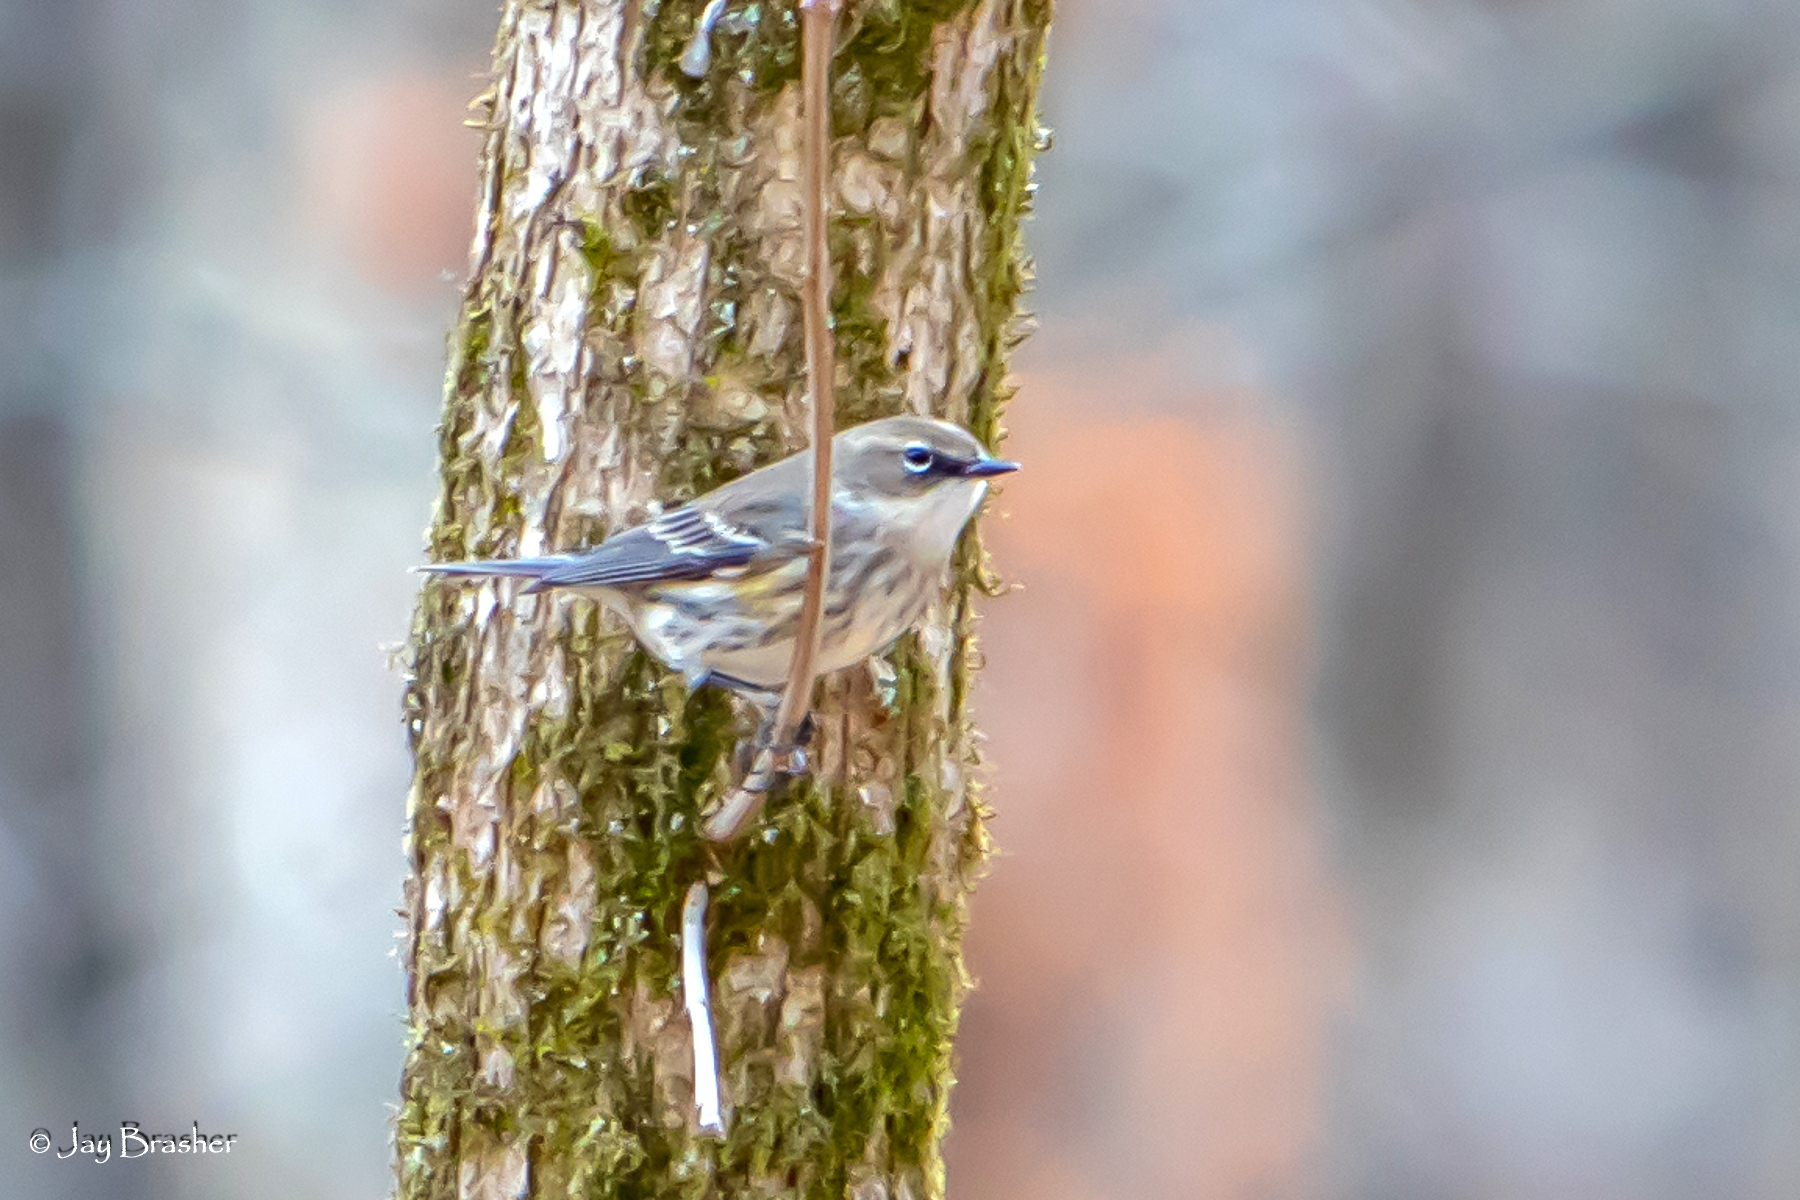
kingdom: Animalia
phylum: Chordata
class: Aves
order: Passeriformes
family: Parulidae
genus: Setophaga
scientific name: Setophaga coronata
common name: Myrtle warbler
